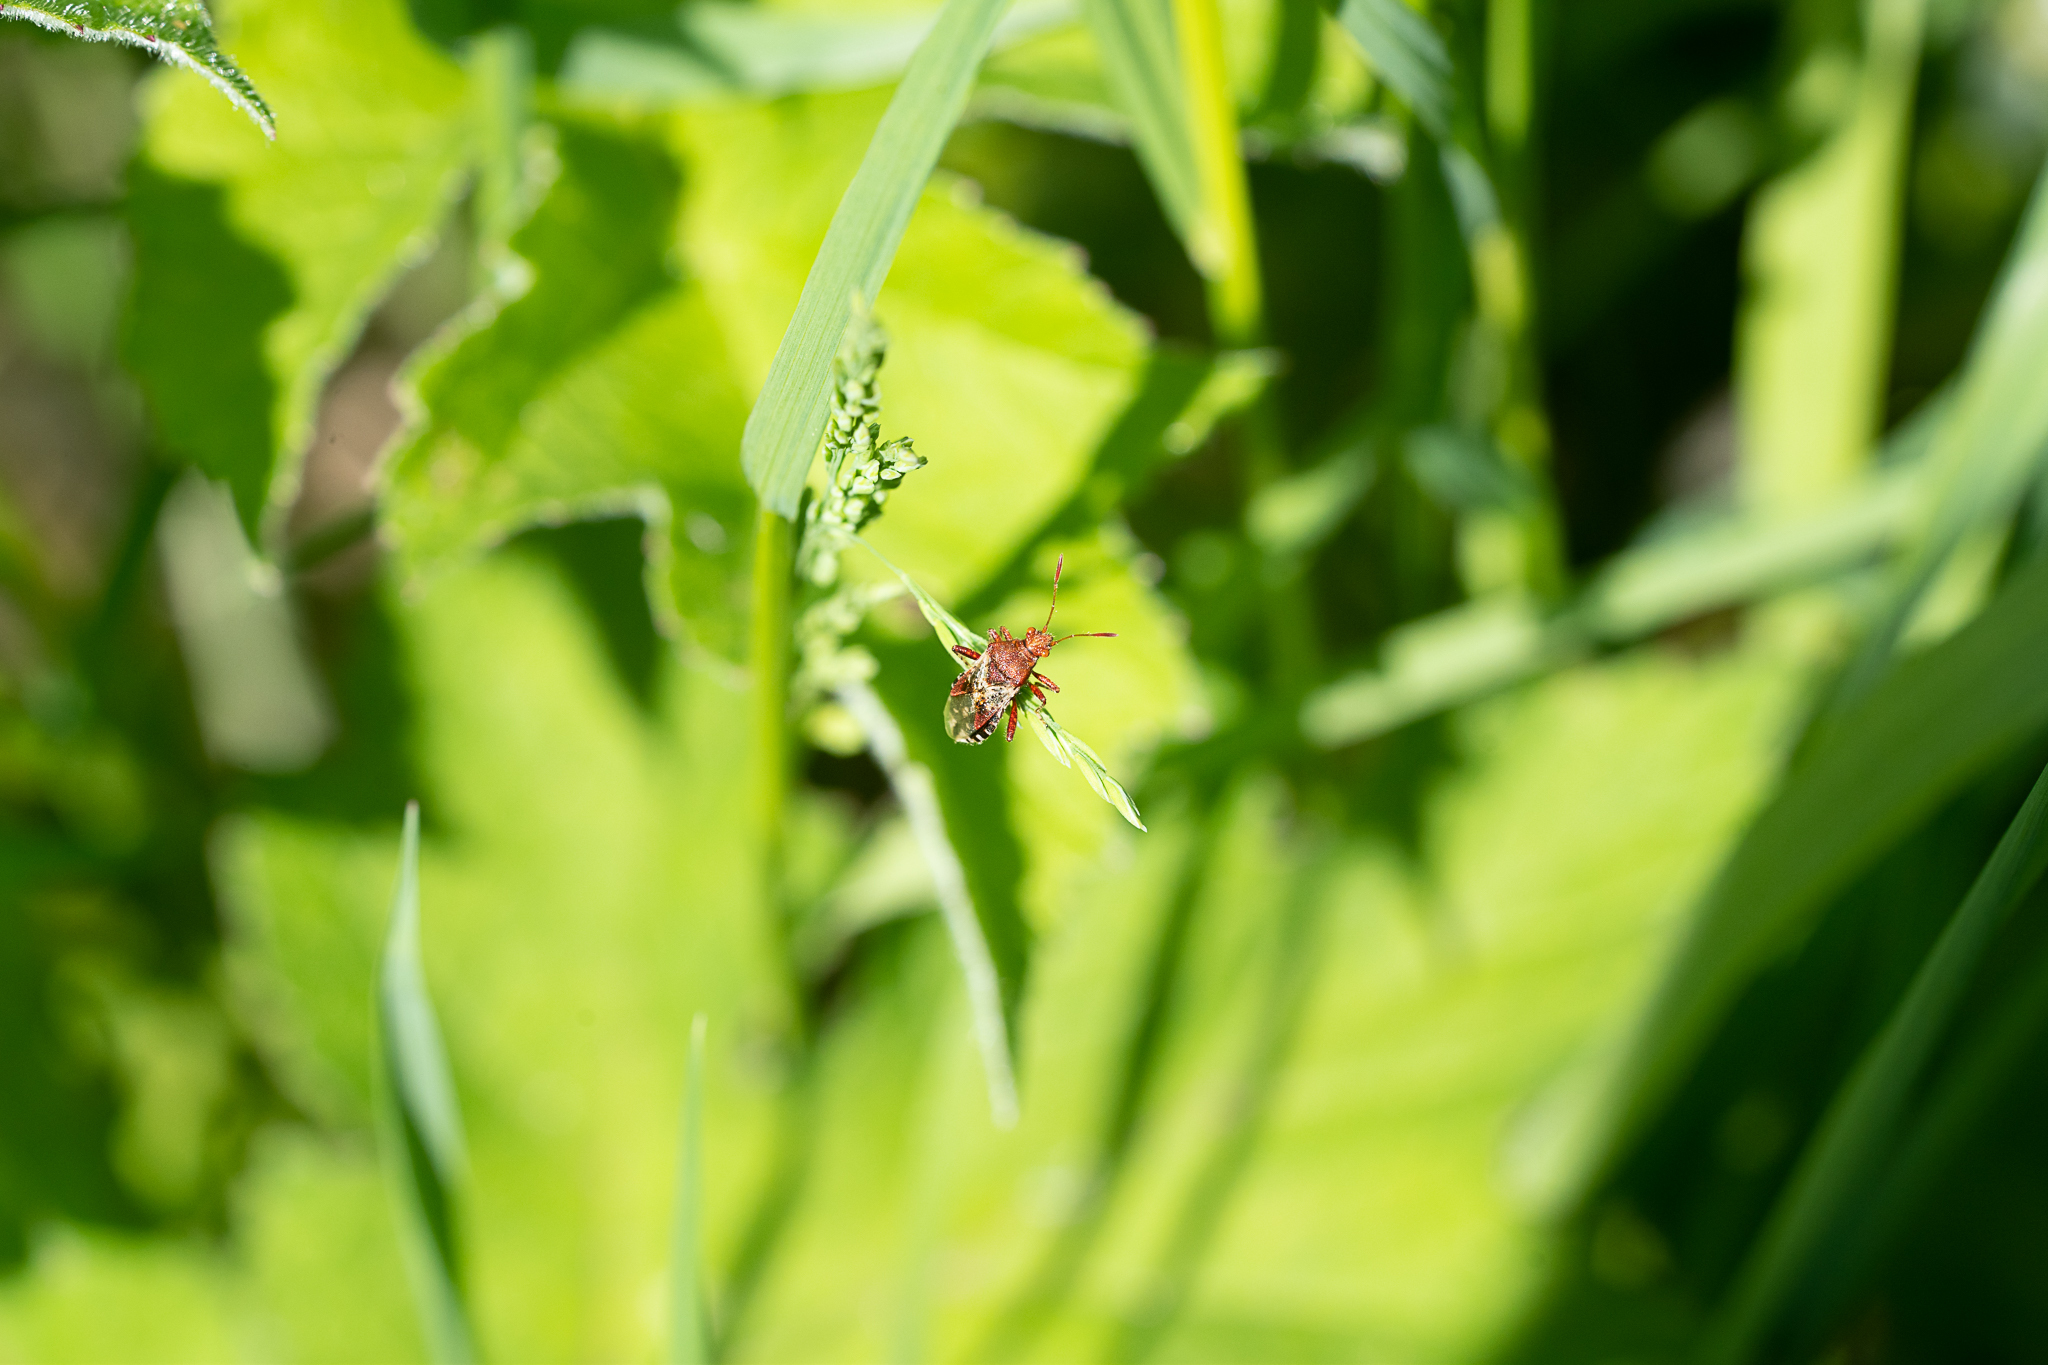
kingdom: Animalia
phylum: Arthropoda
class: Insecta
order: Hemiptera
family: Rhopalidae
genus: Rhopalus
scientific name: Rhopalus subrufus
